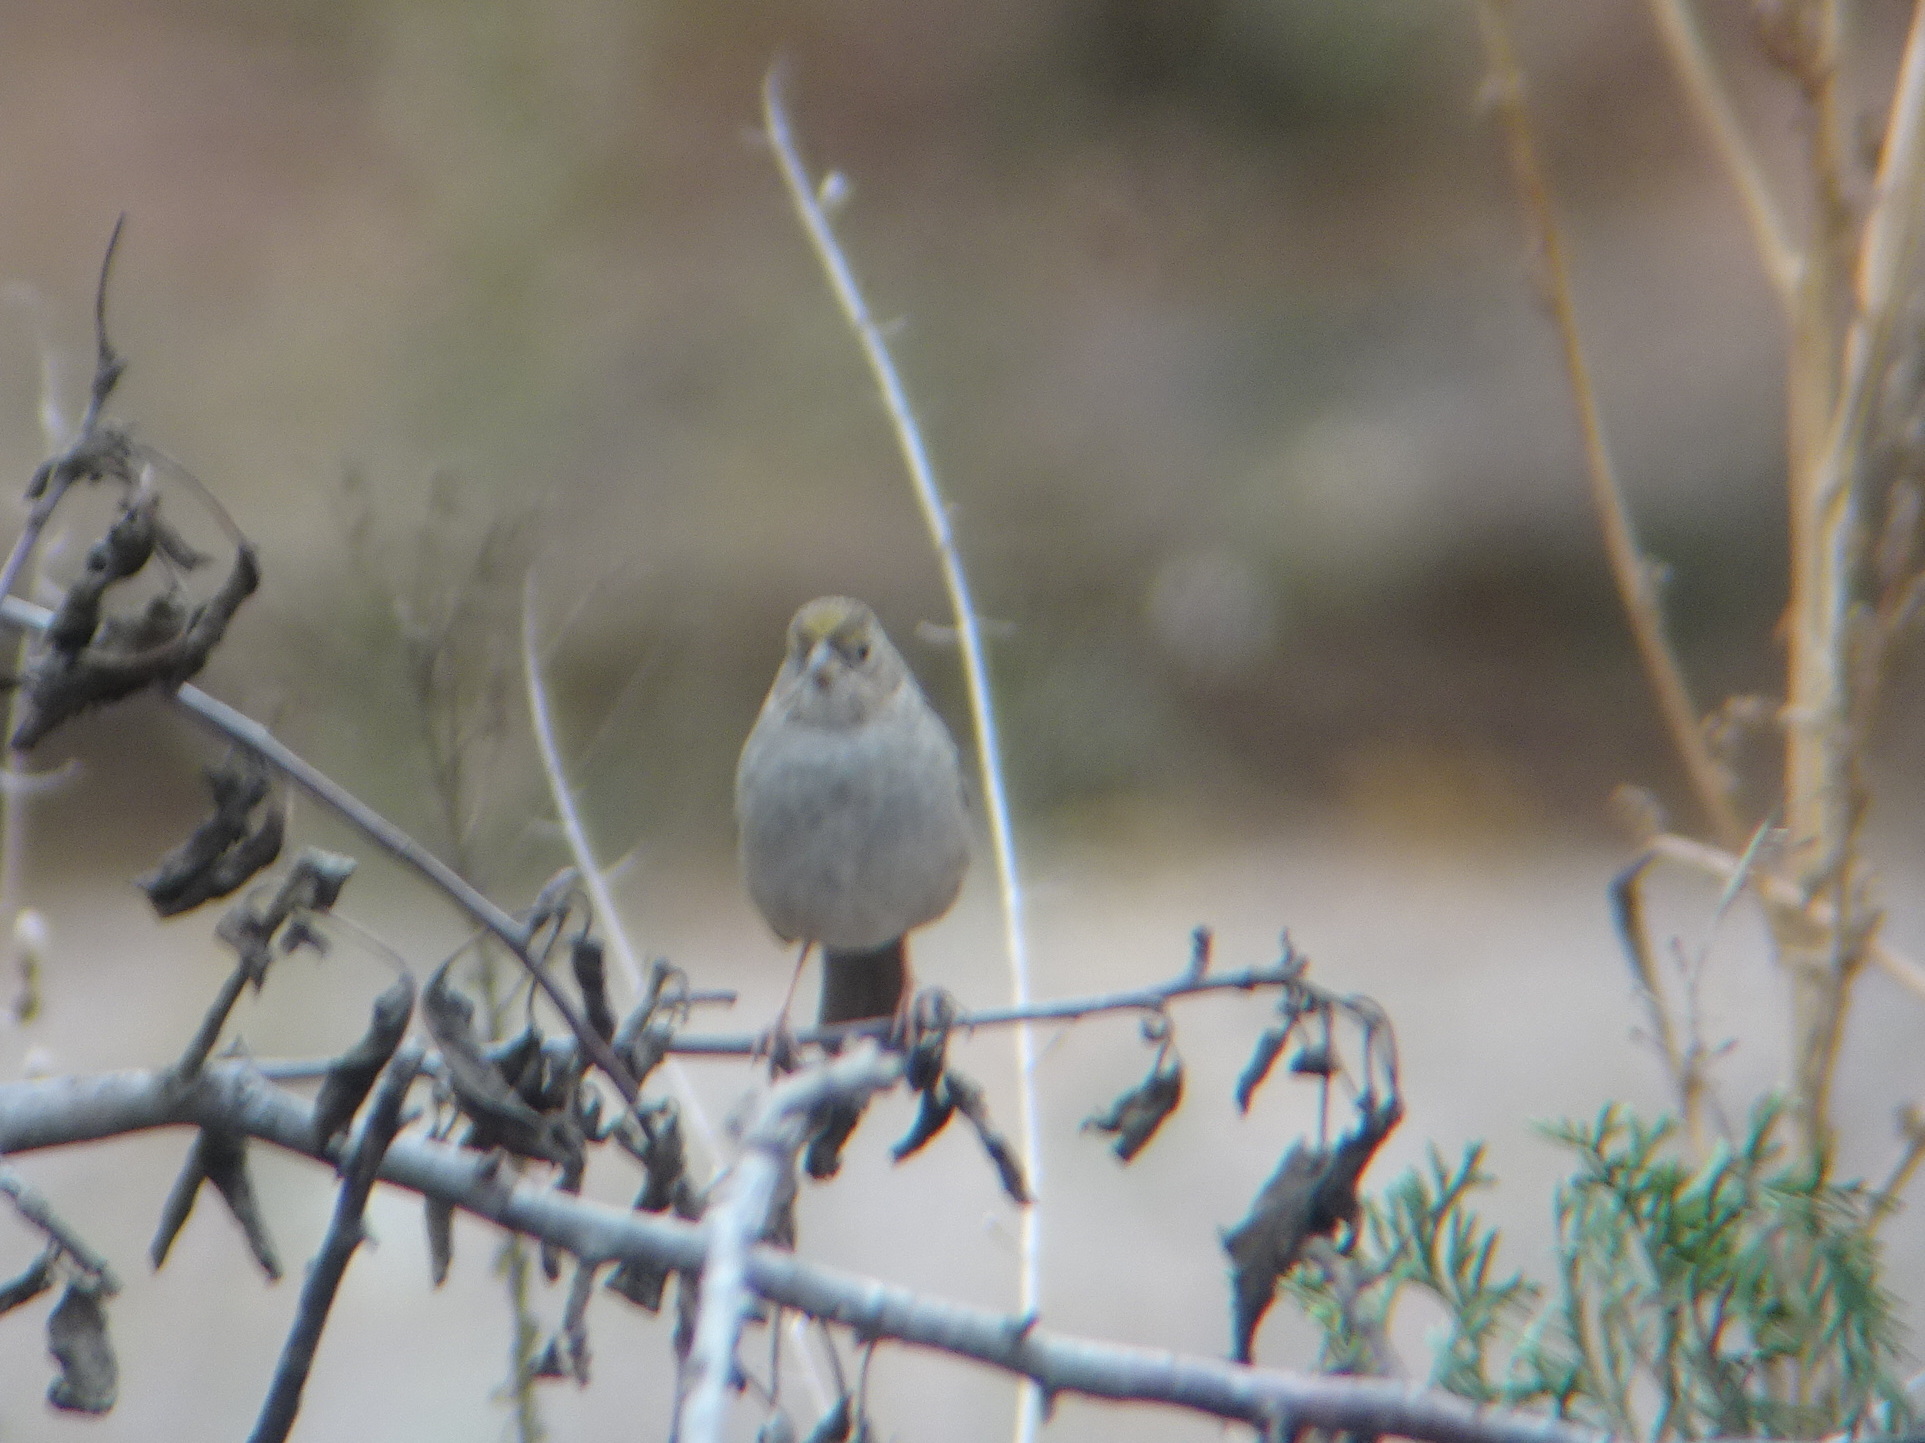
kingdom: Animalia
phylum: Chordata
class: Aves
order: Passeriformes
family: Passerellidae
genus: Zonotrichia
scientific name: Zonotrichia atricapilla
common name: Golden-crowned sparrow
